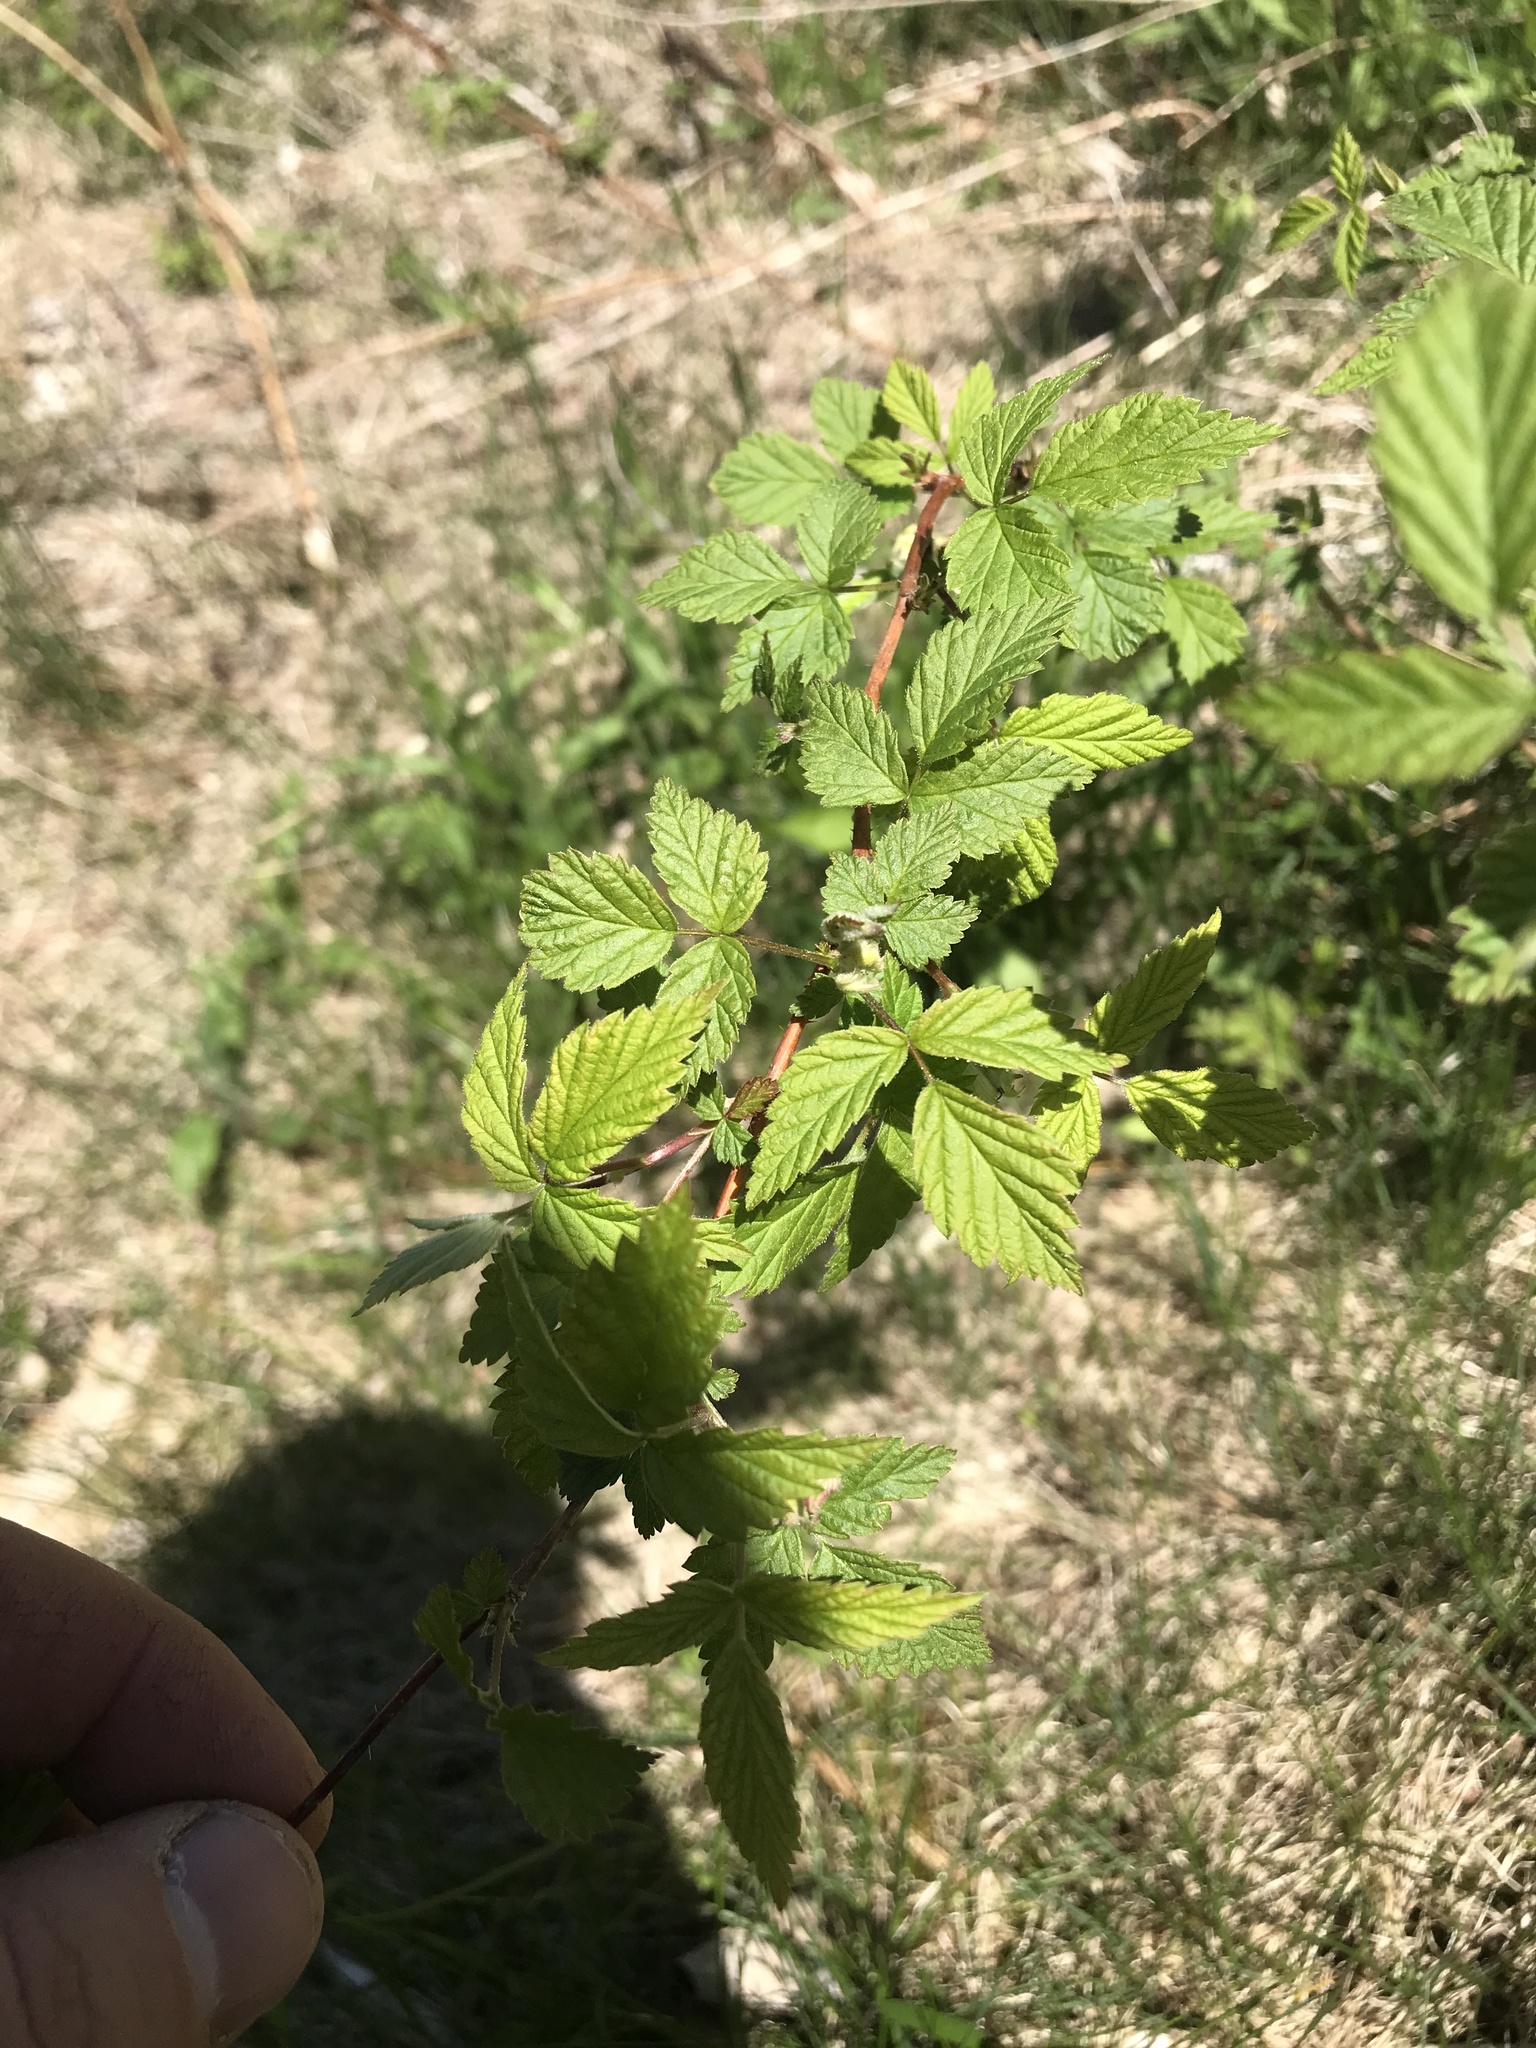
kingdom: Plantae
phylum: Tracheophyta
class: Magnoliopsida
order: Rosales
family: Rosaceae
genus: Rubus
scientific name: Rubus idaeus
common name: Raspberry
